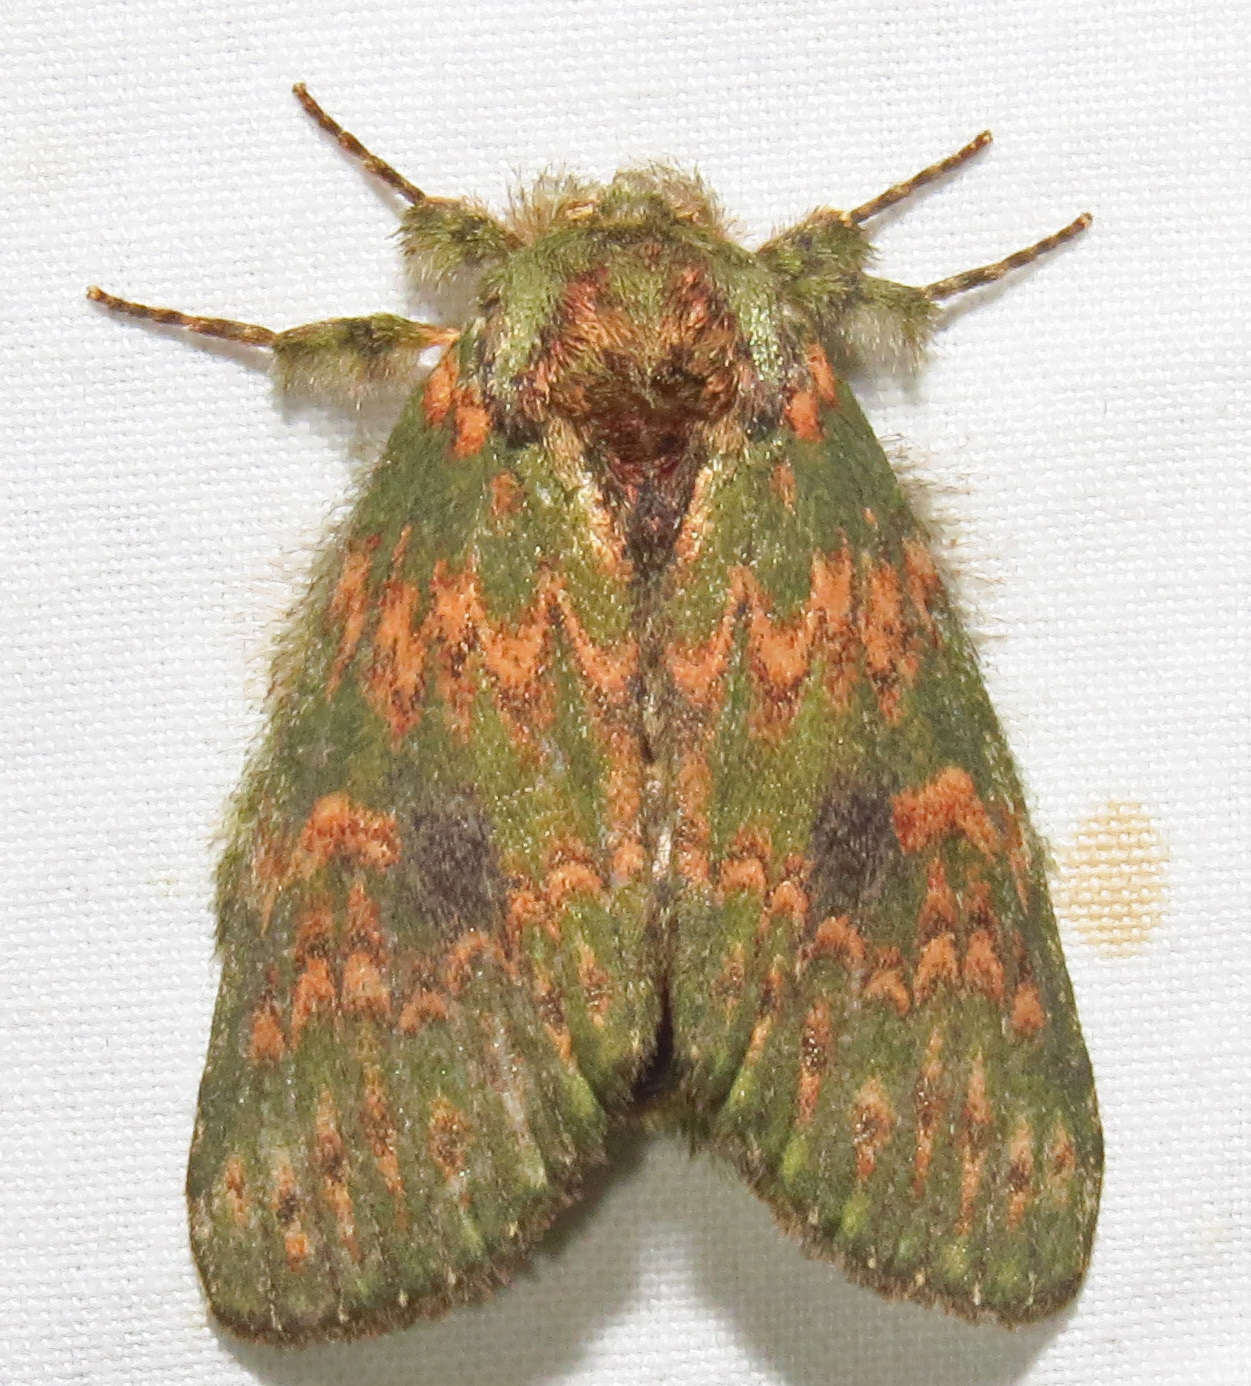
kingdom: Animalia
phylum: Arthropoda
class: Insecta
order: Lepidoptera
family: Notodontidae
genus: Disphragis
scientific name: Disphragis Cecrita biundata
